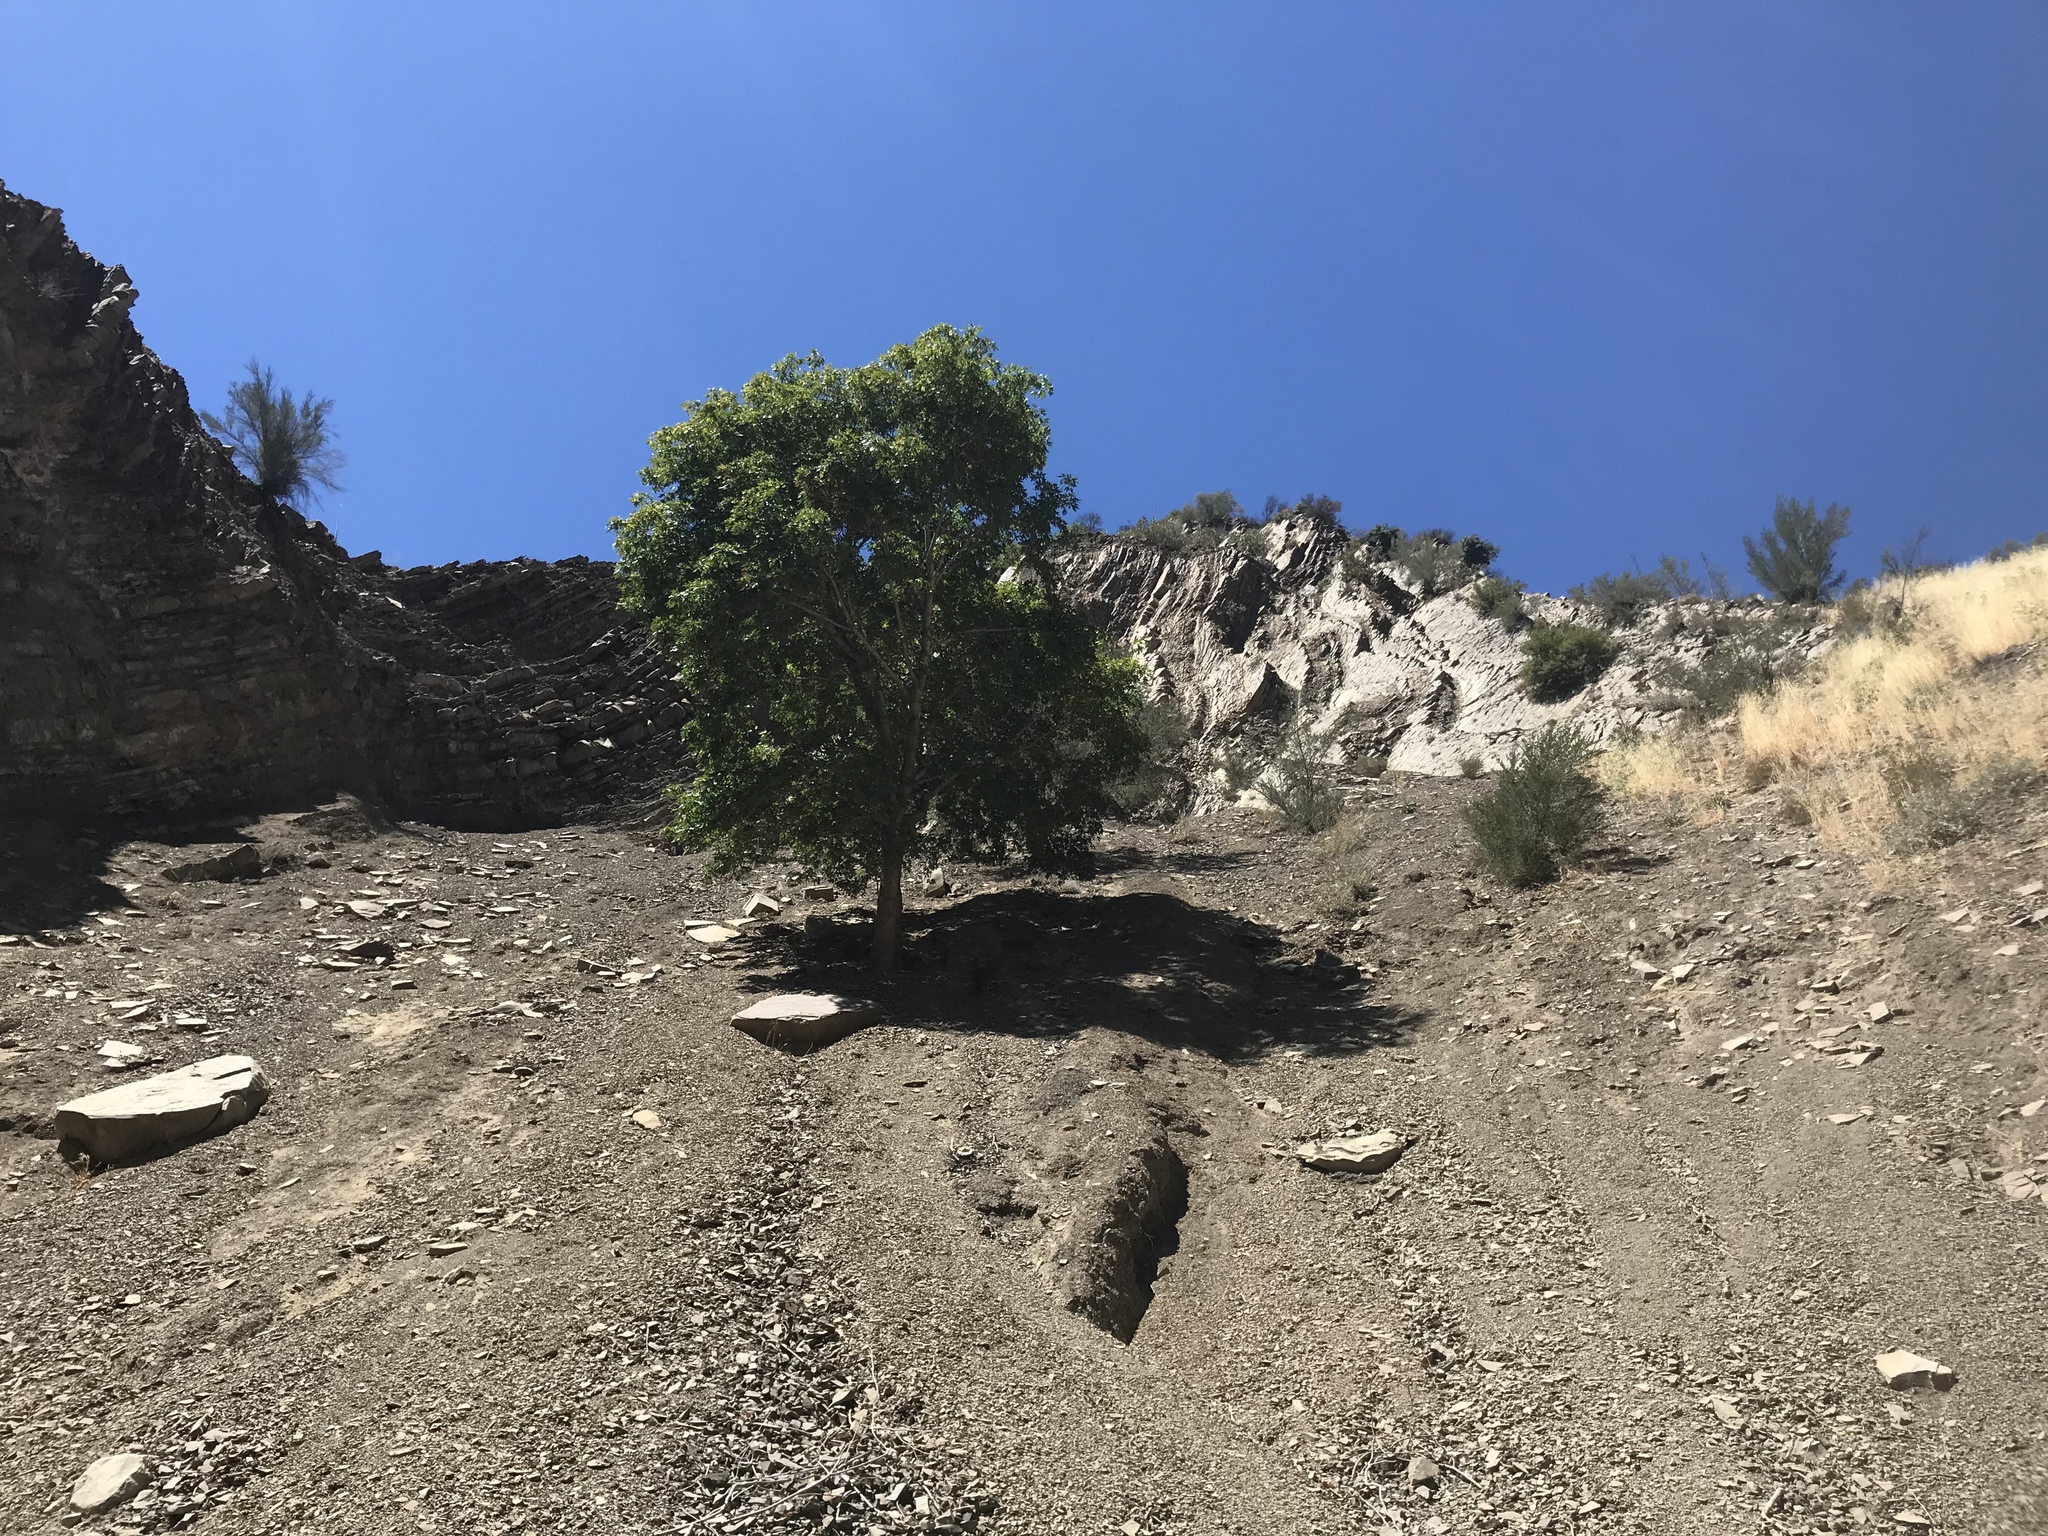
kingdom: Plantae
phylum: Tracheophyta
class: Magnoliopsida
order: Sapindales
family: Sapindaceae
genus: Acer
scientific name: Acer macrophyllum
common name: Oregon maple
